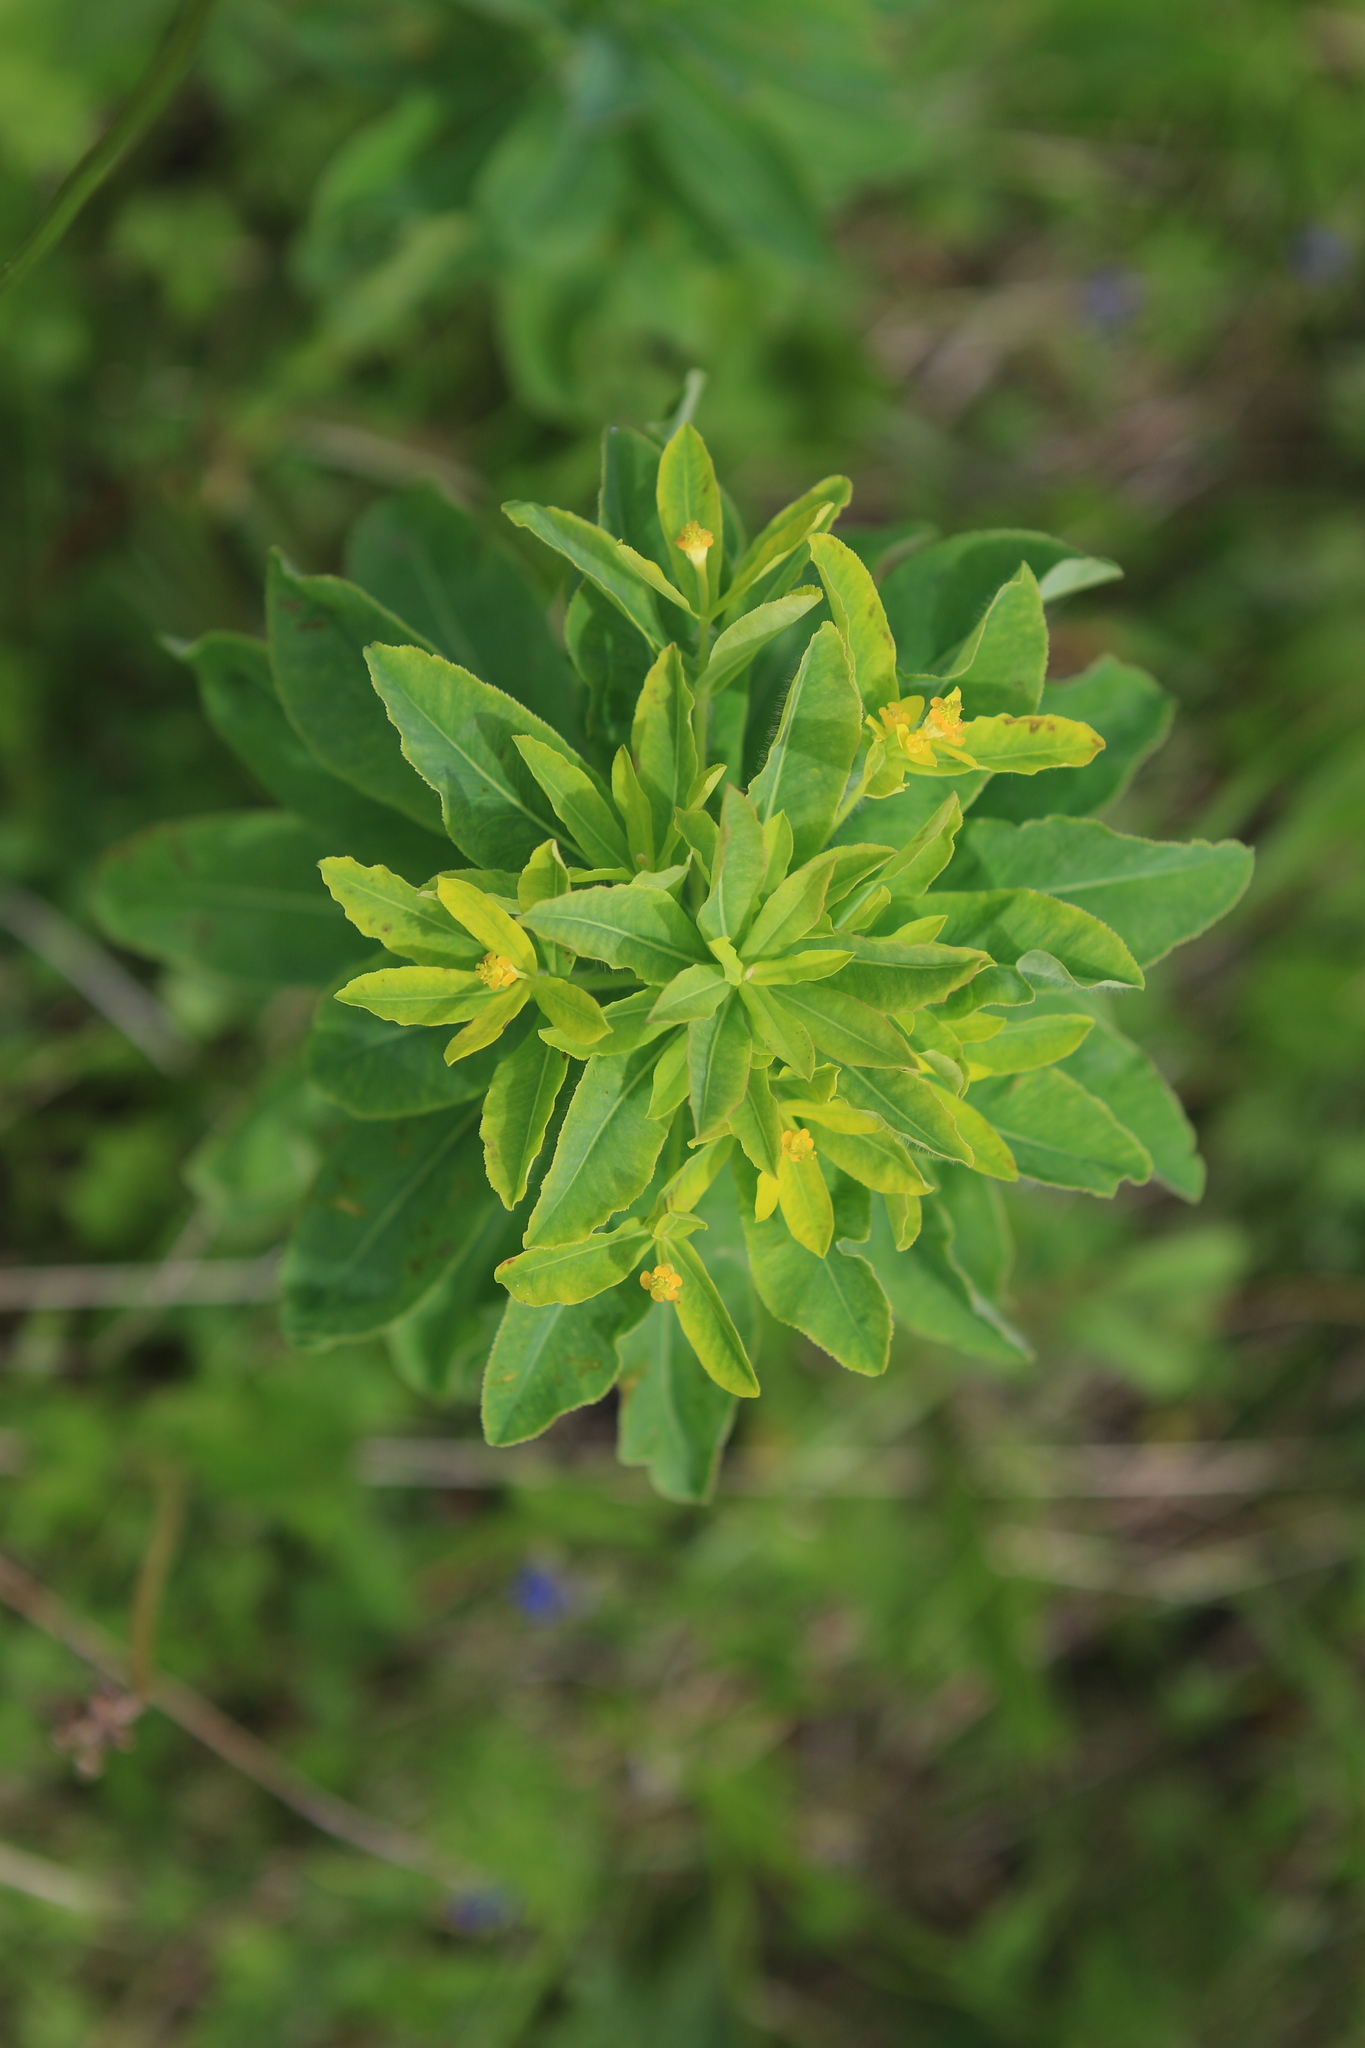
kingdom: Plantae
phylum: Tracheophyta
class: Magnoliopsida
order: Malpighiales
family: Euphorbiaceae
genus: Euphorbia
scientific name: Euphorbia pilosa
